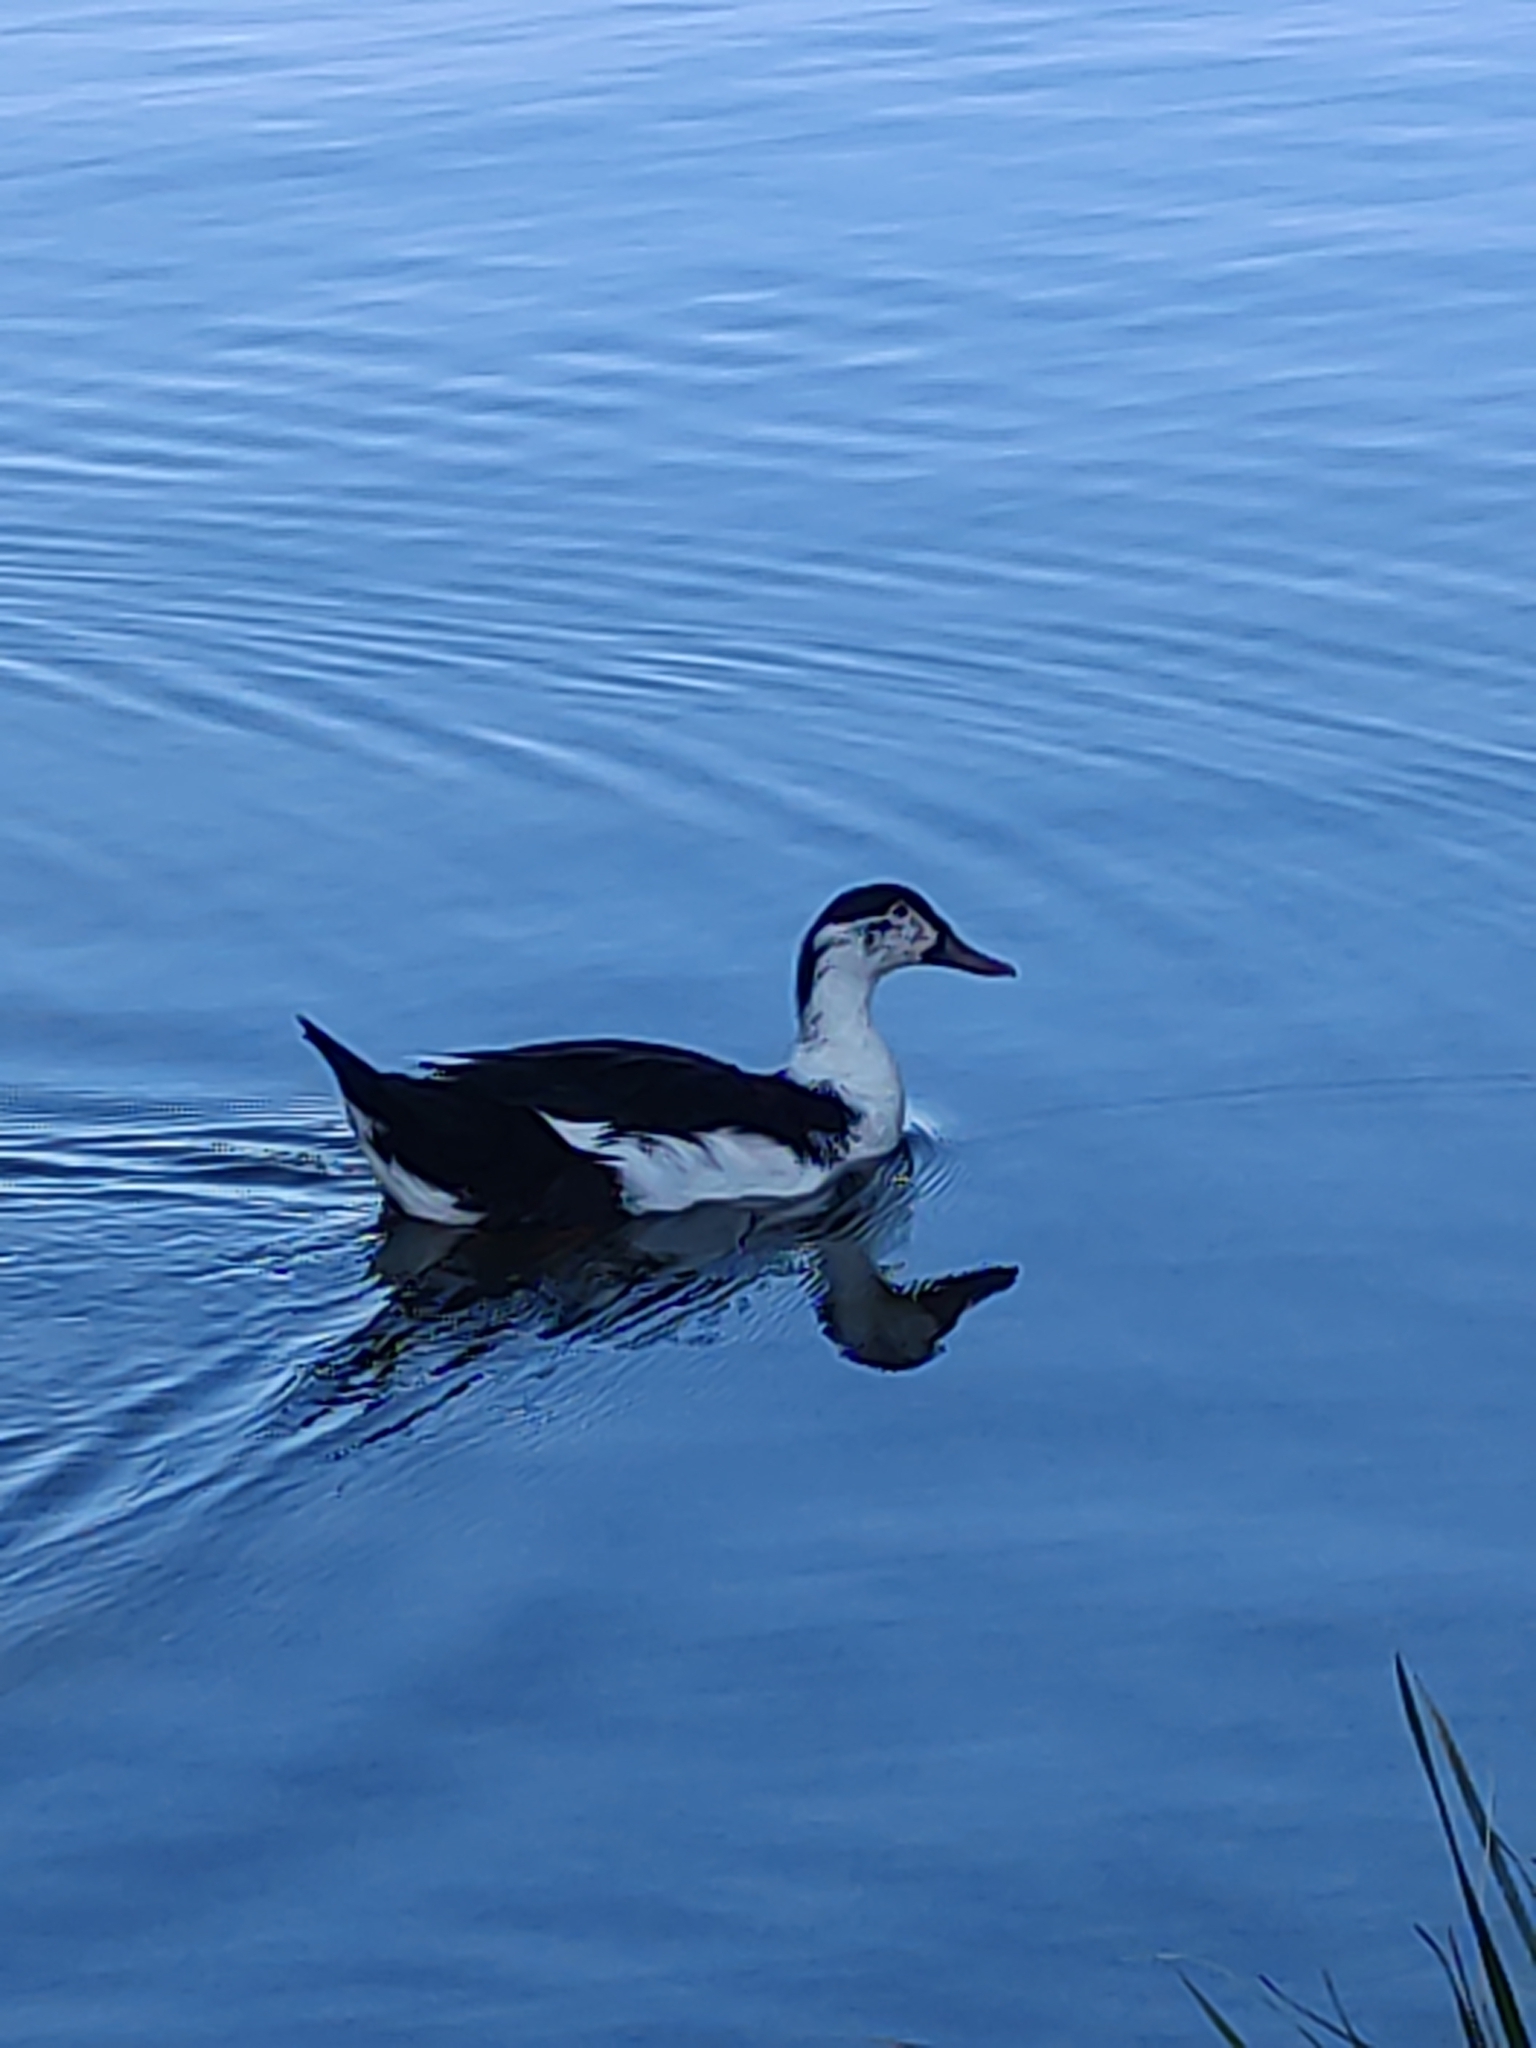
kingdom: Animalia
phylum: Chordata
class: Aves
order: Anseriformes
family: Anatidae
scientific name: Anatidae
